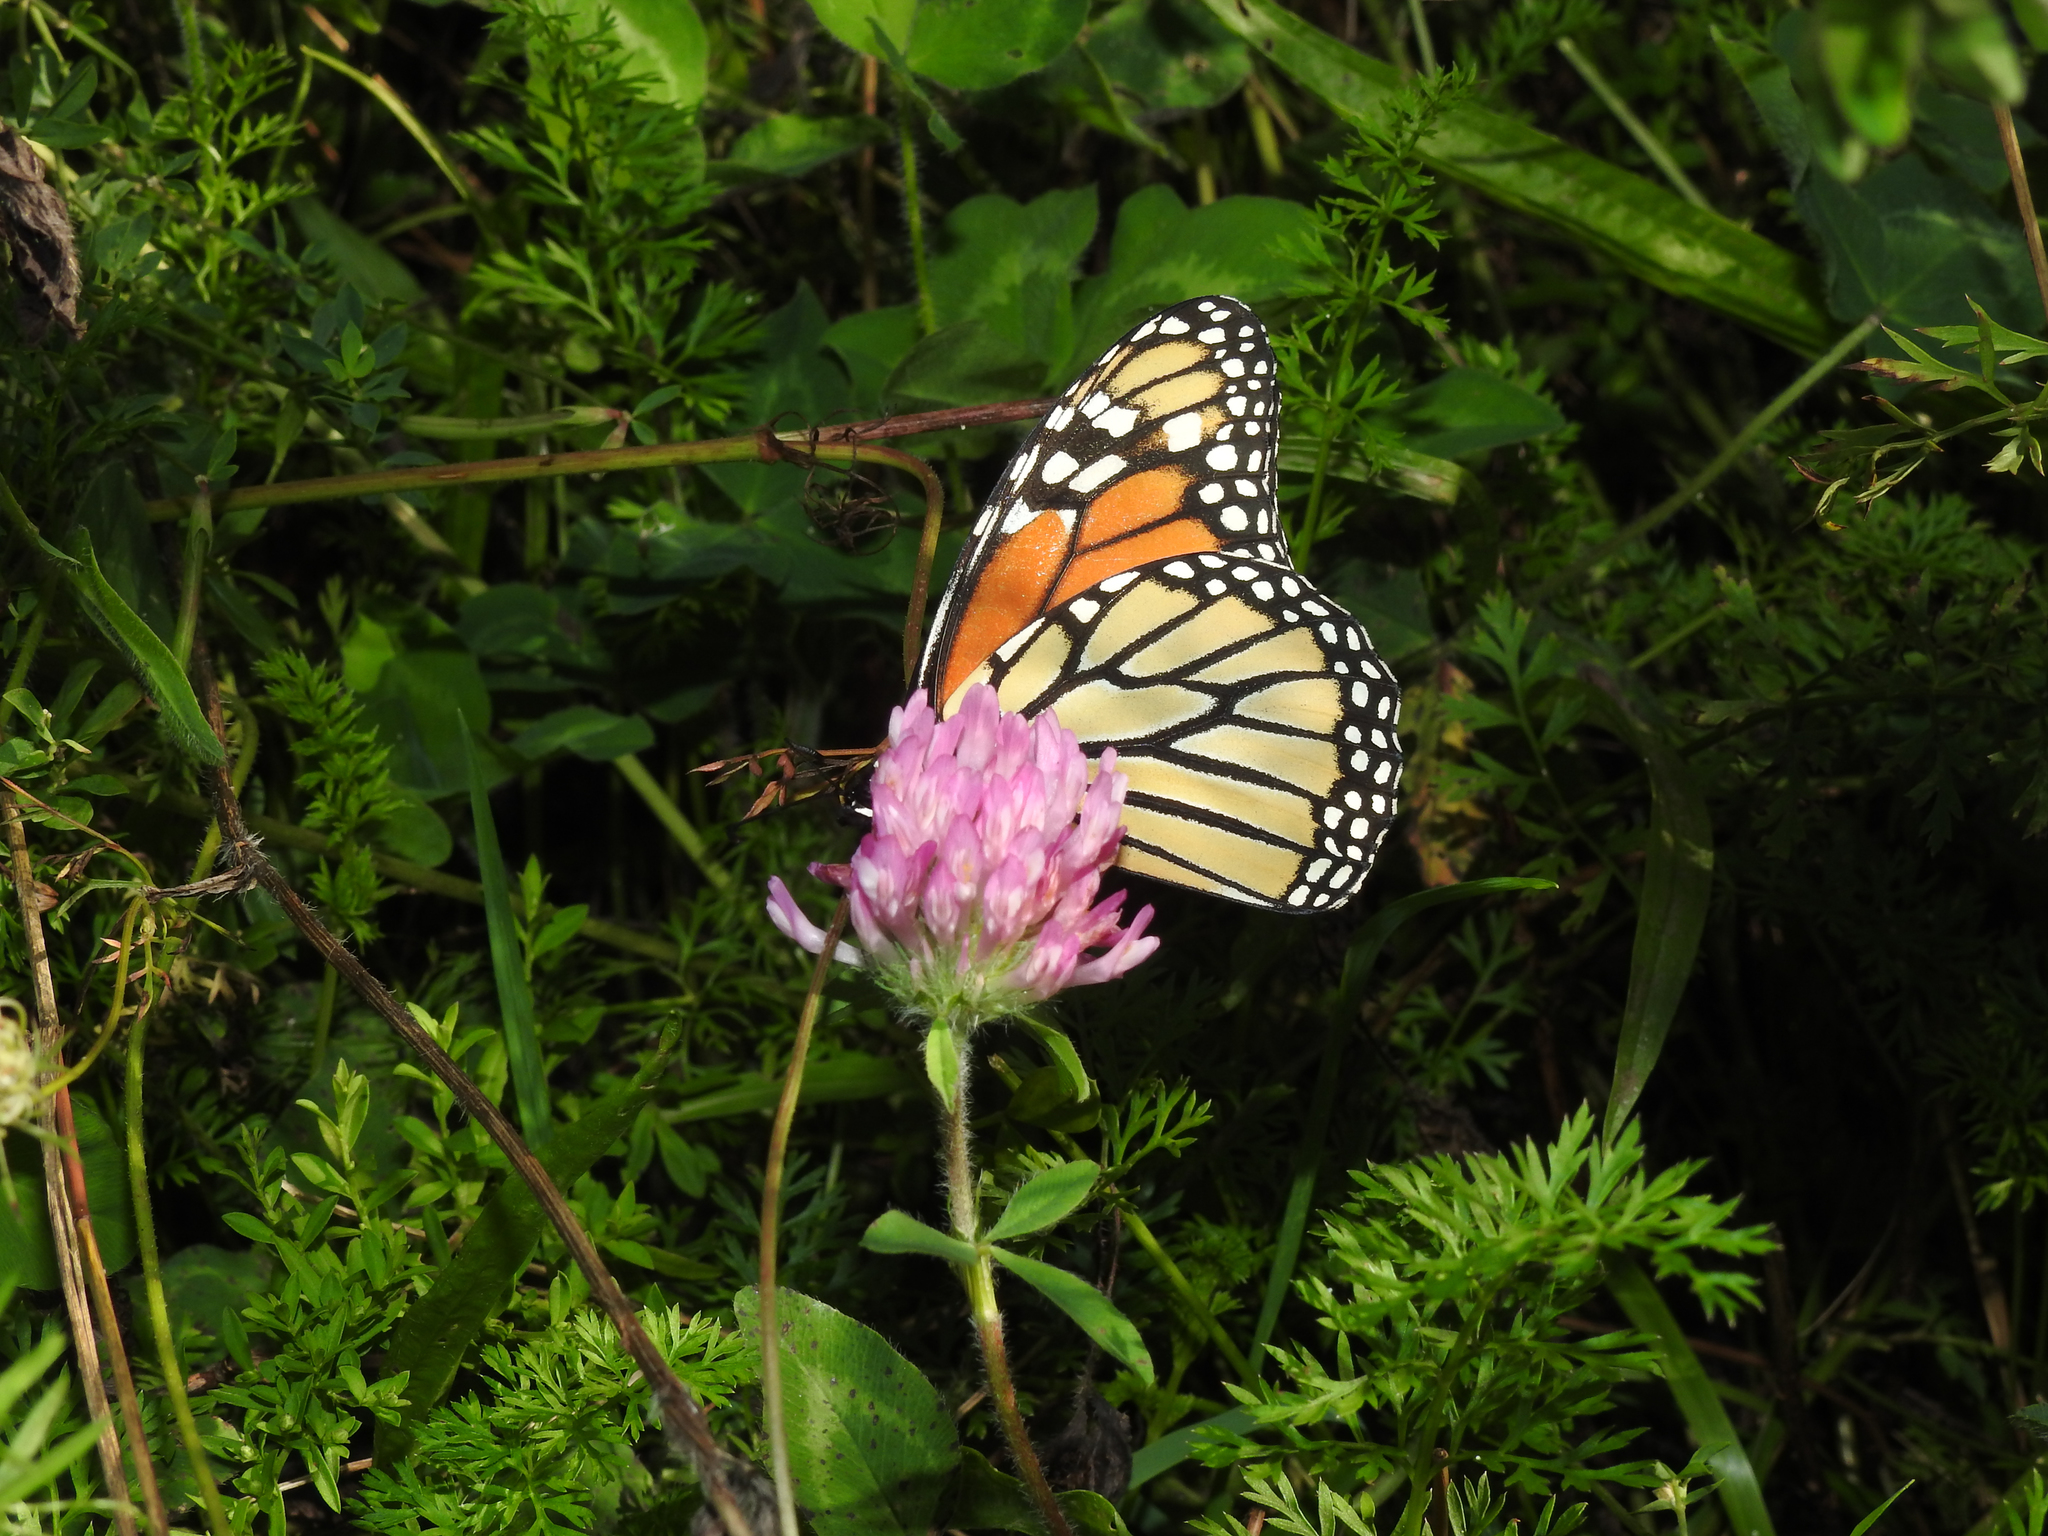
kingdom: Animalia
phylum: Arthropoda
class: Insecta
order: Lepidoptera
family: Nymphalidae
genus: Danaus
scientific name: Danaus plexippus
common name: Monarch
